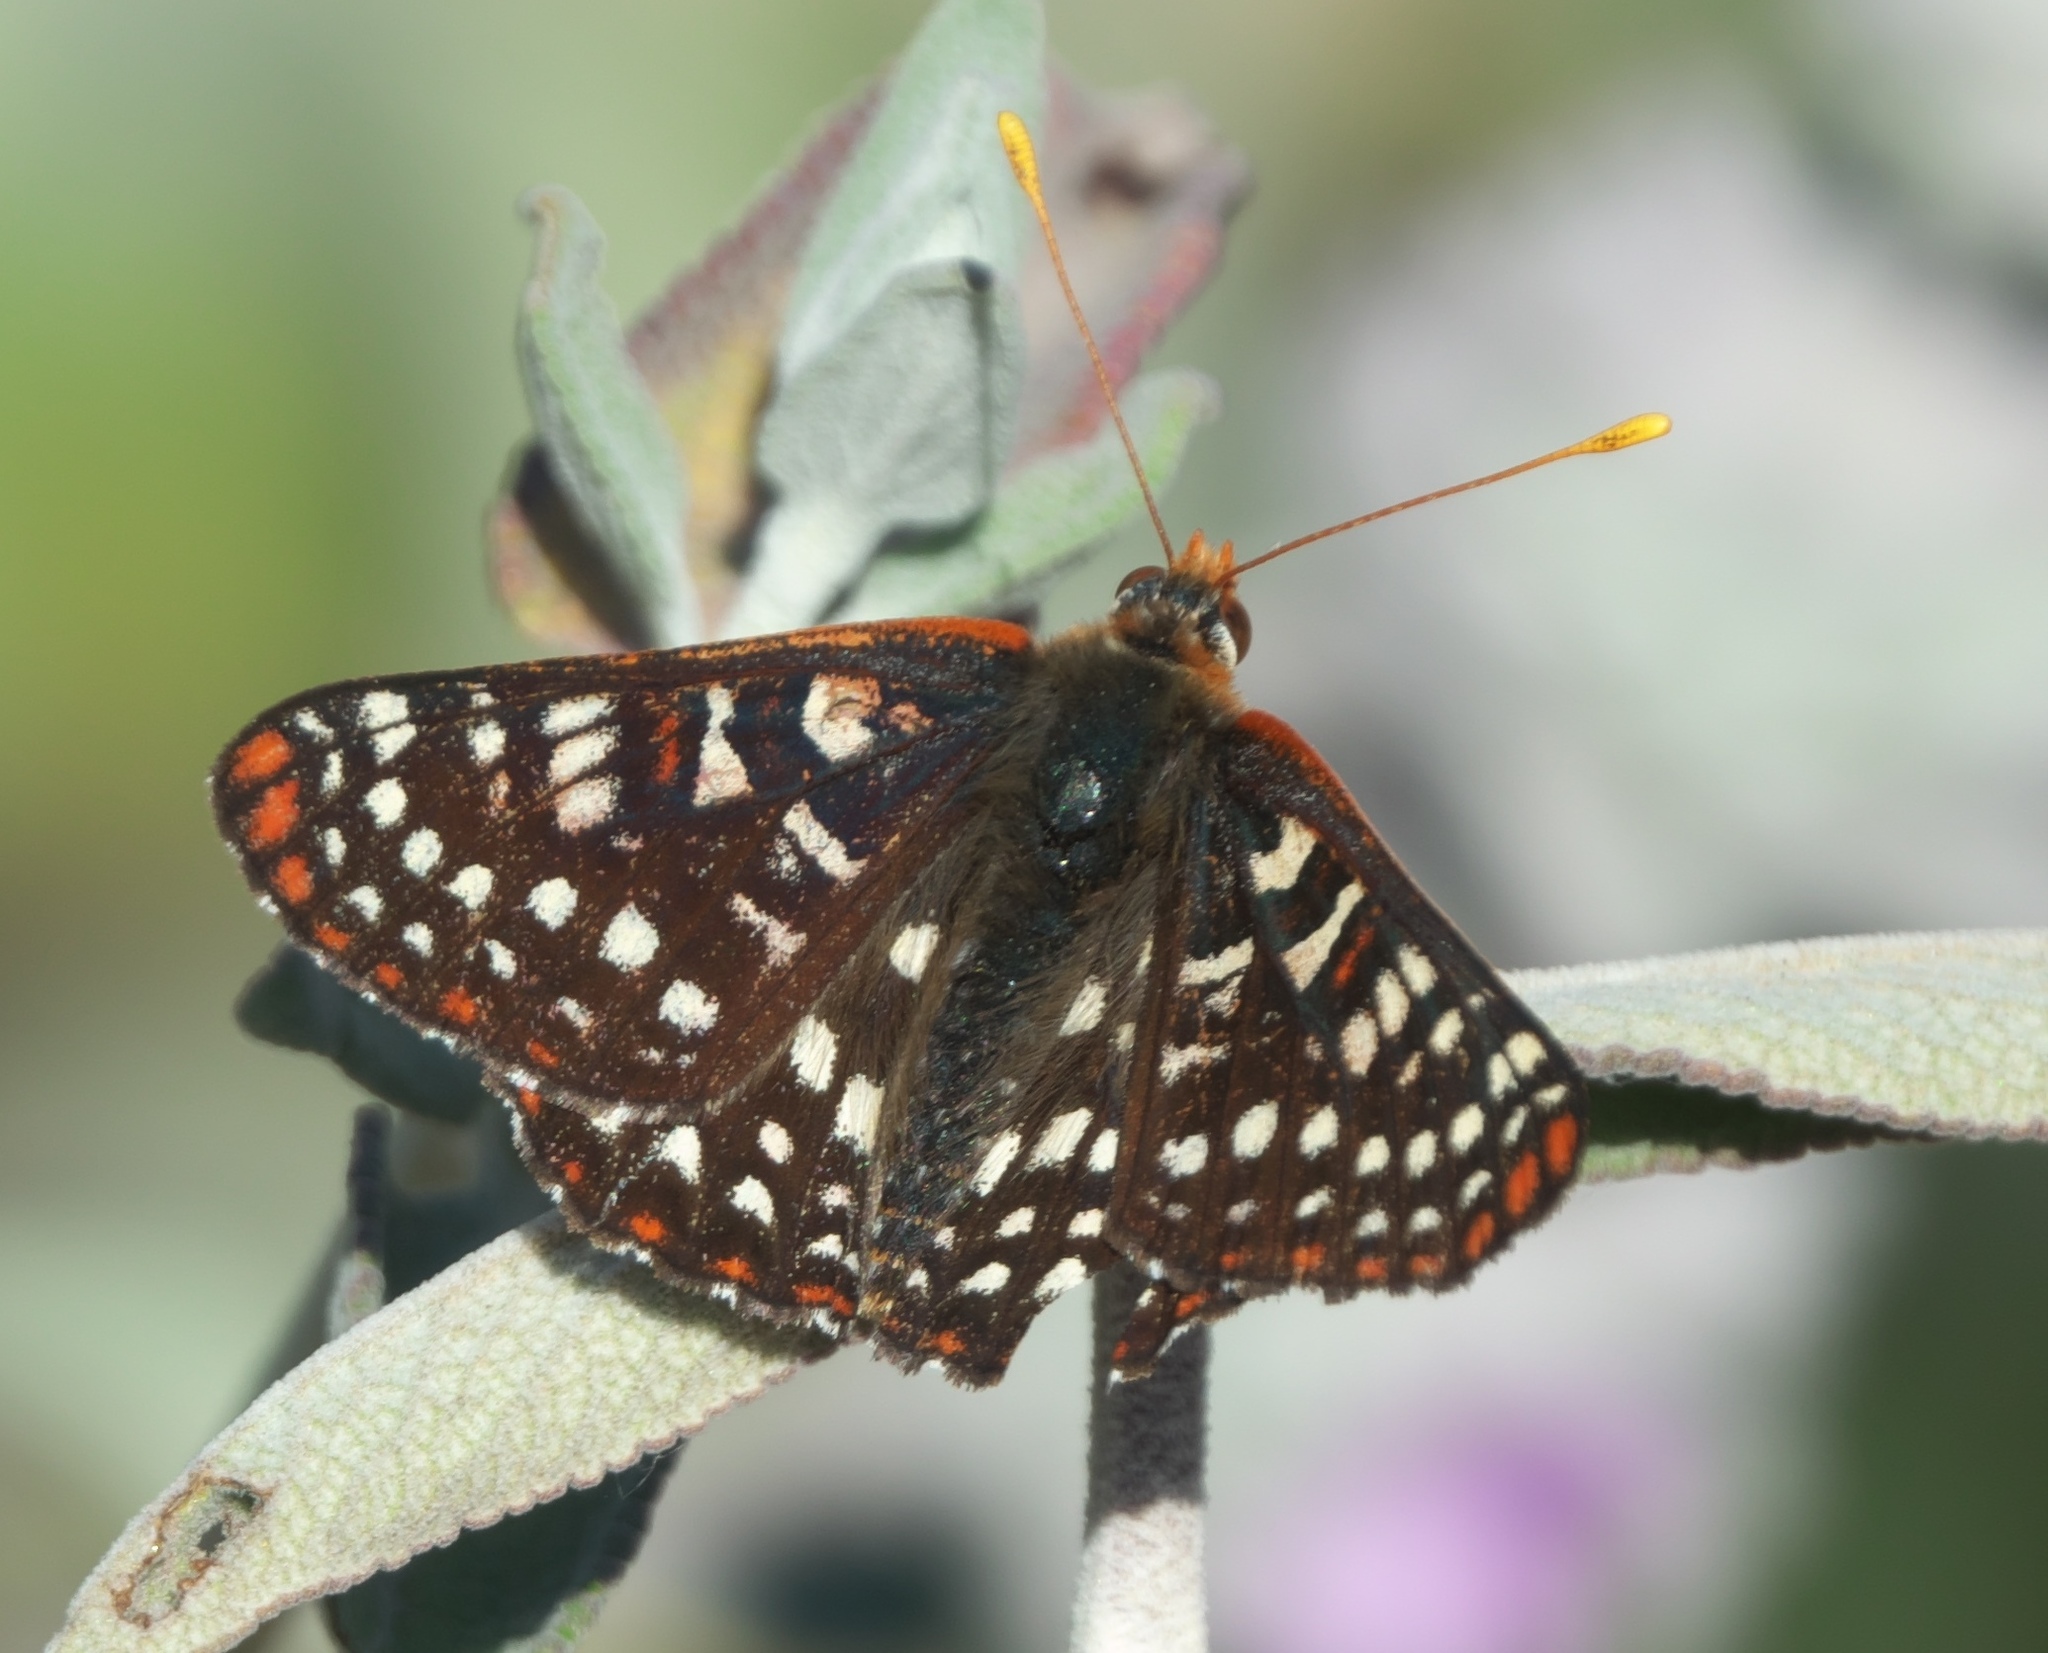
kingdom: Animalia
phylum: Arthropoda
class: Insecta
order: Lepidoptera
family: Nymphalidae
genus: Occidryas
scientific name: Occidryas chalcedona
